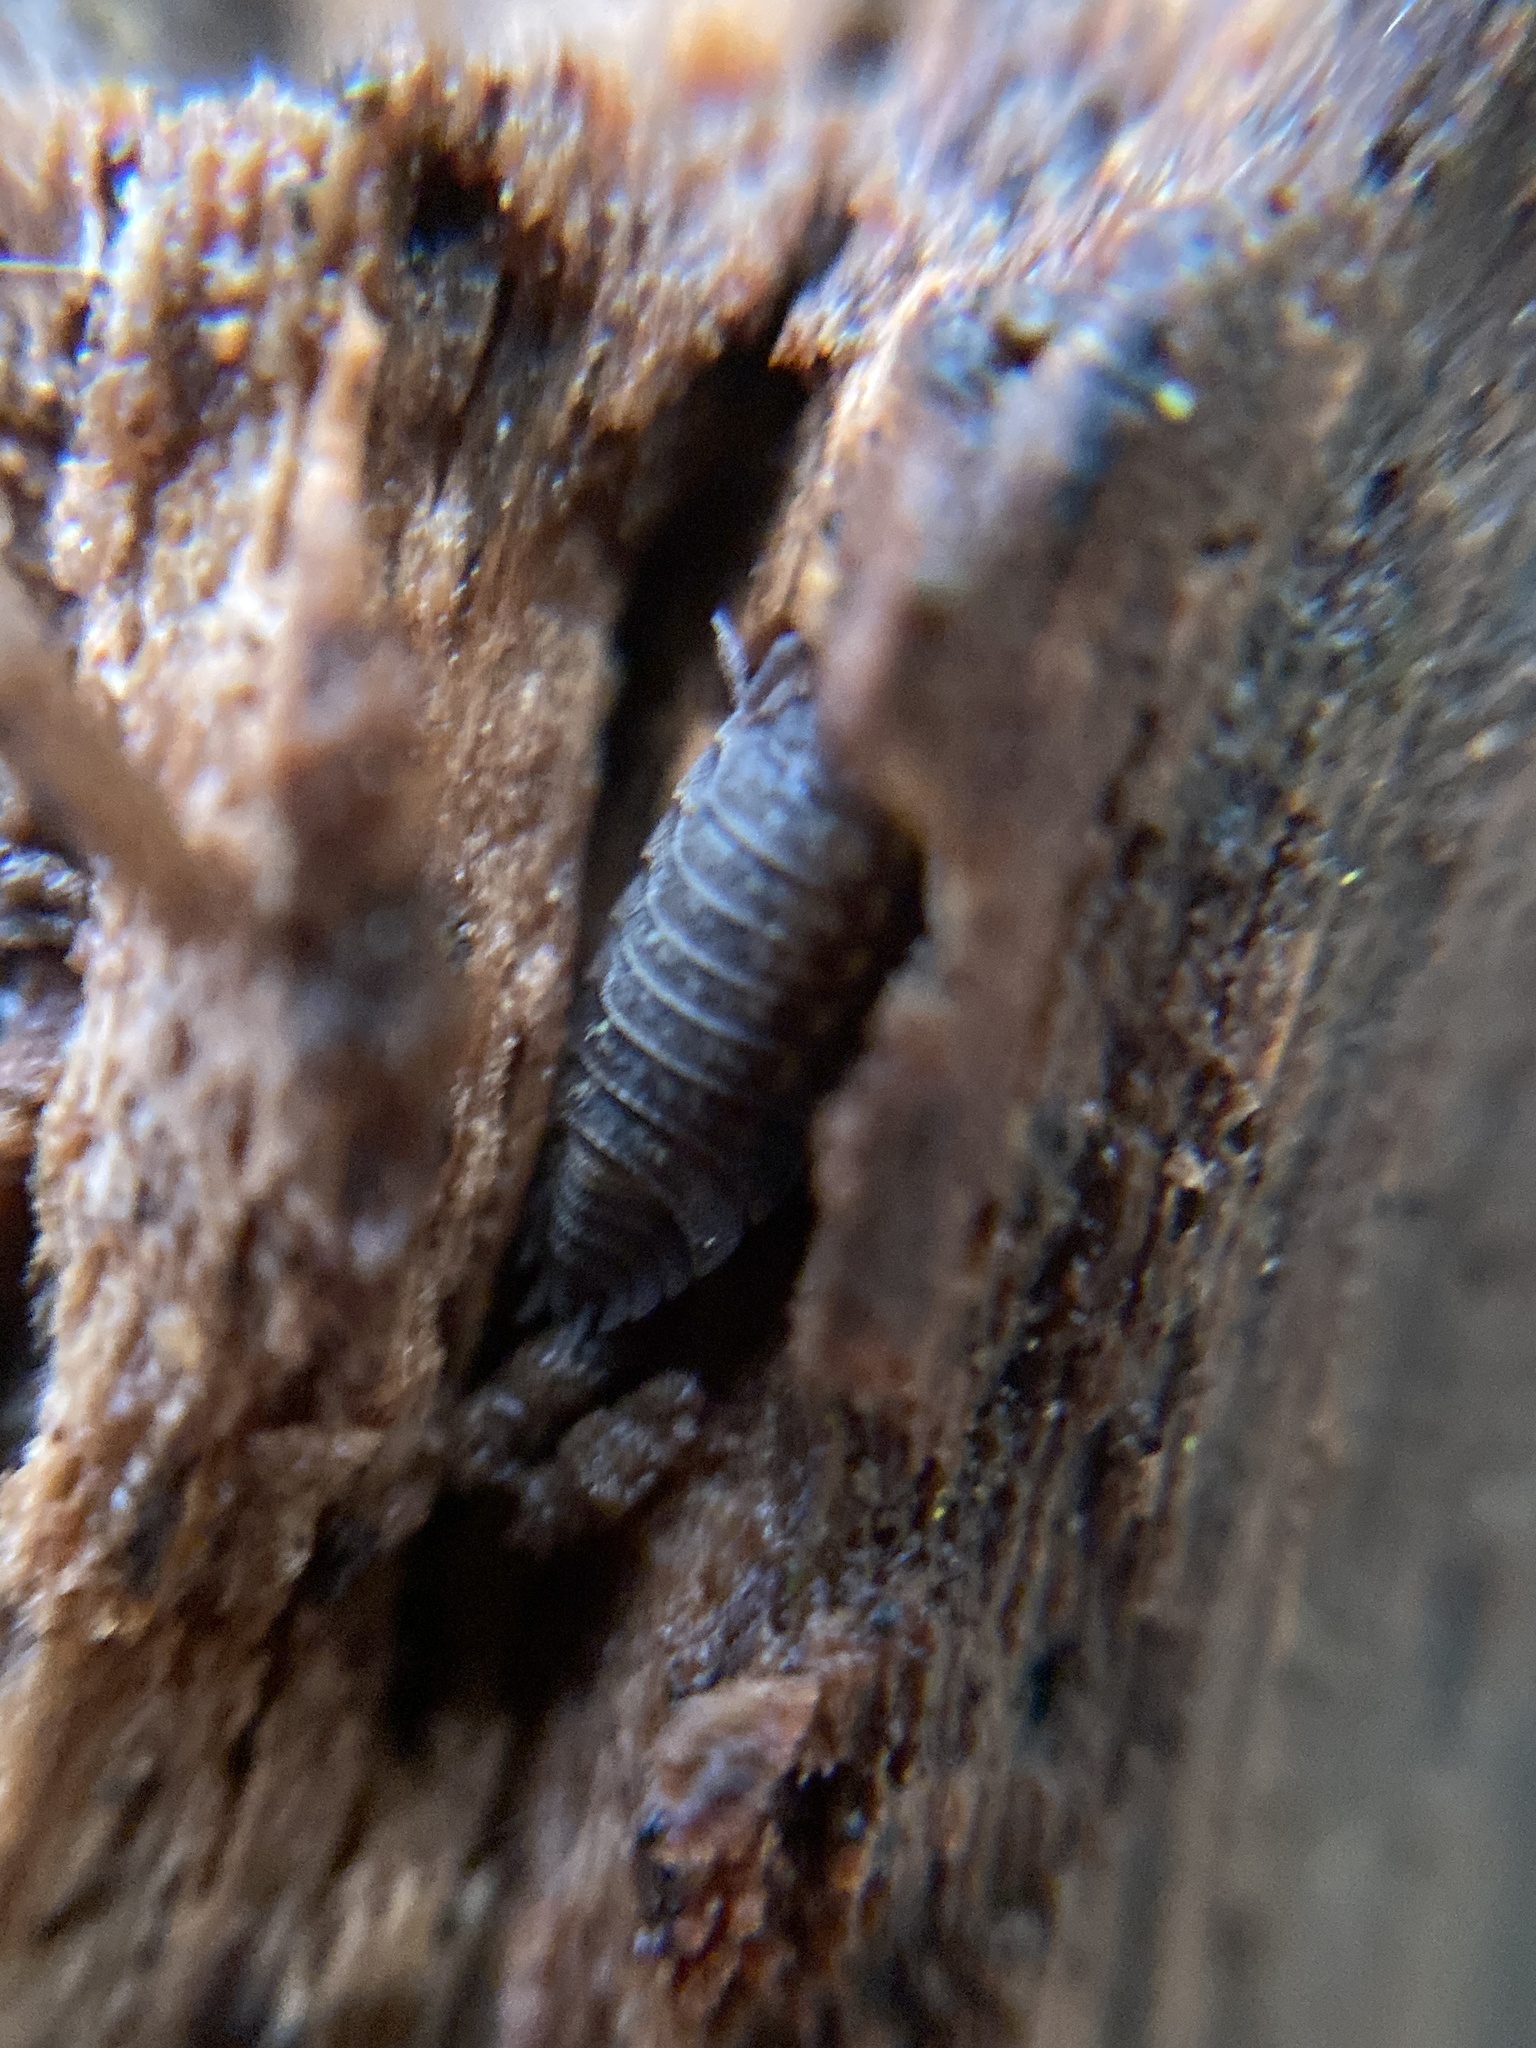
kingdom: Animalia
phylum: Arthropoda
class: Malacostraca
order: Isopoda
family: Oniscidae
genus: Oniscus
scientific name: Oniscus asellus
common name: Common shiny woodlouse
